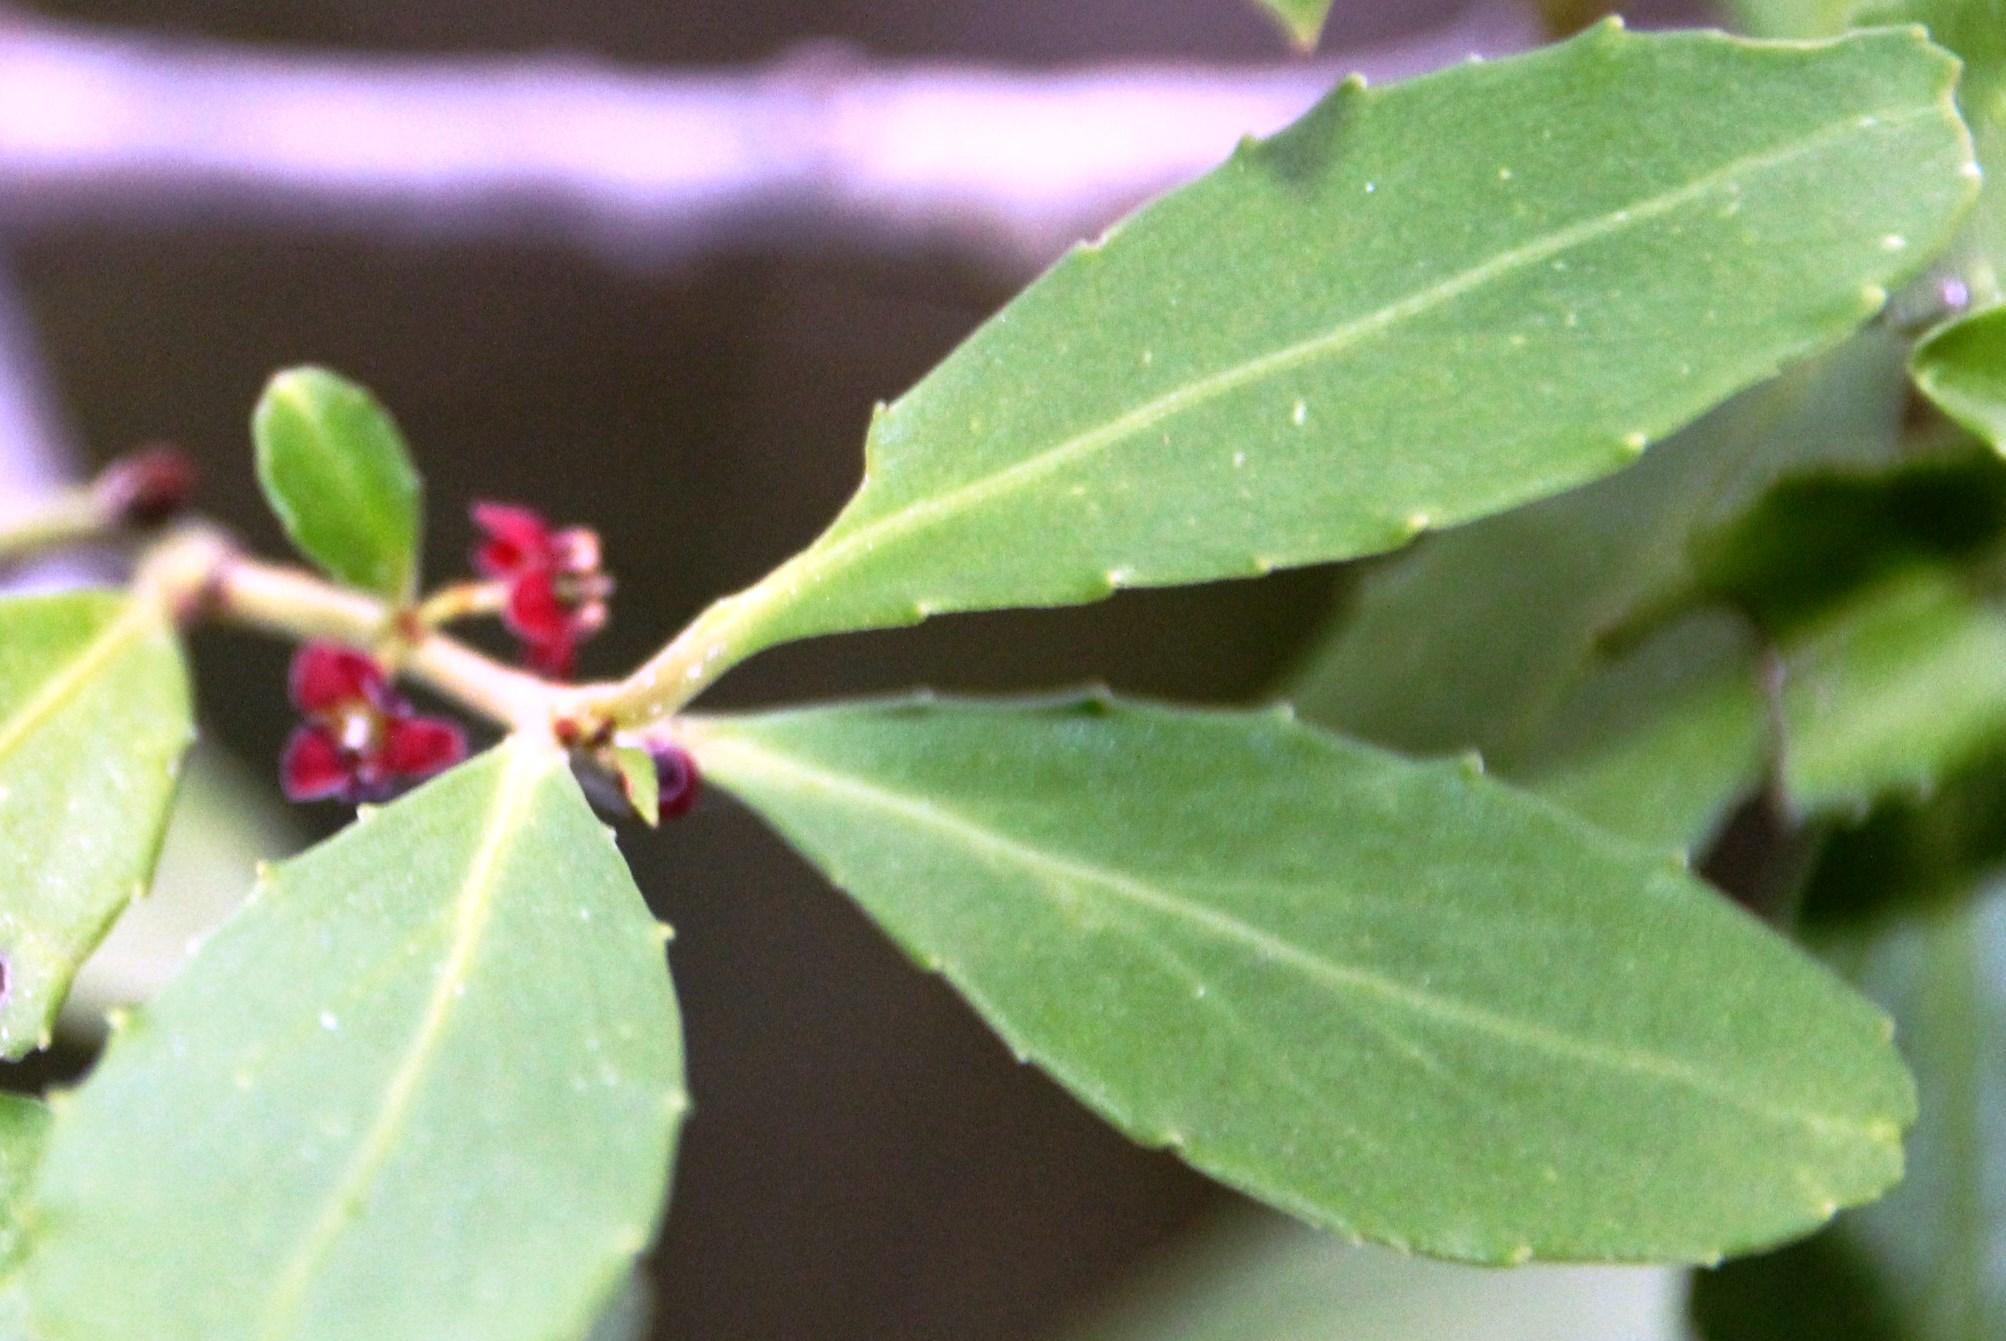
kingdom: Plantae
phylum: Tracheophyta
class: Magnoliopsida
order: Celastrales
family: Celastraceae
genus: Maytenus
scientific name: Maytenus magellanica
